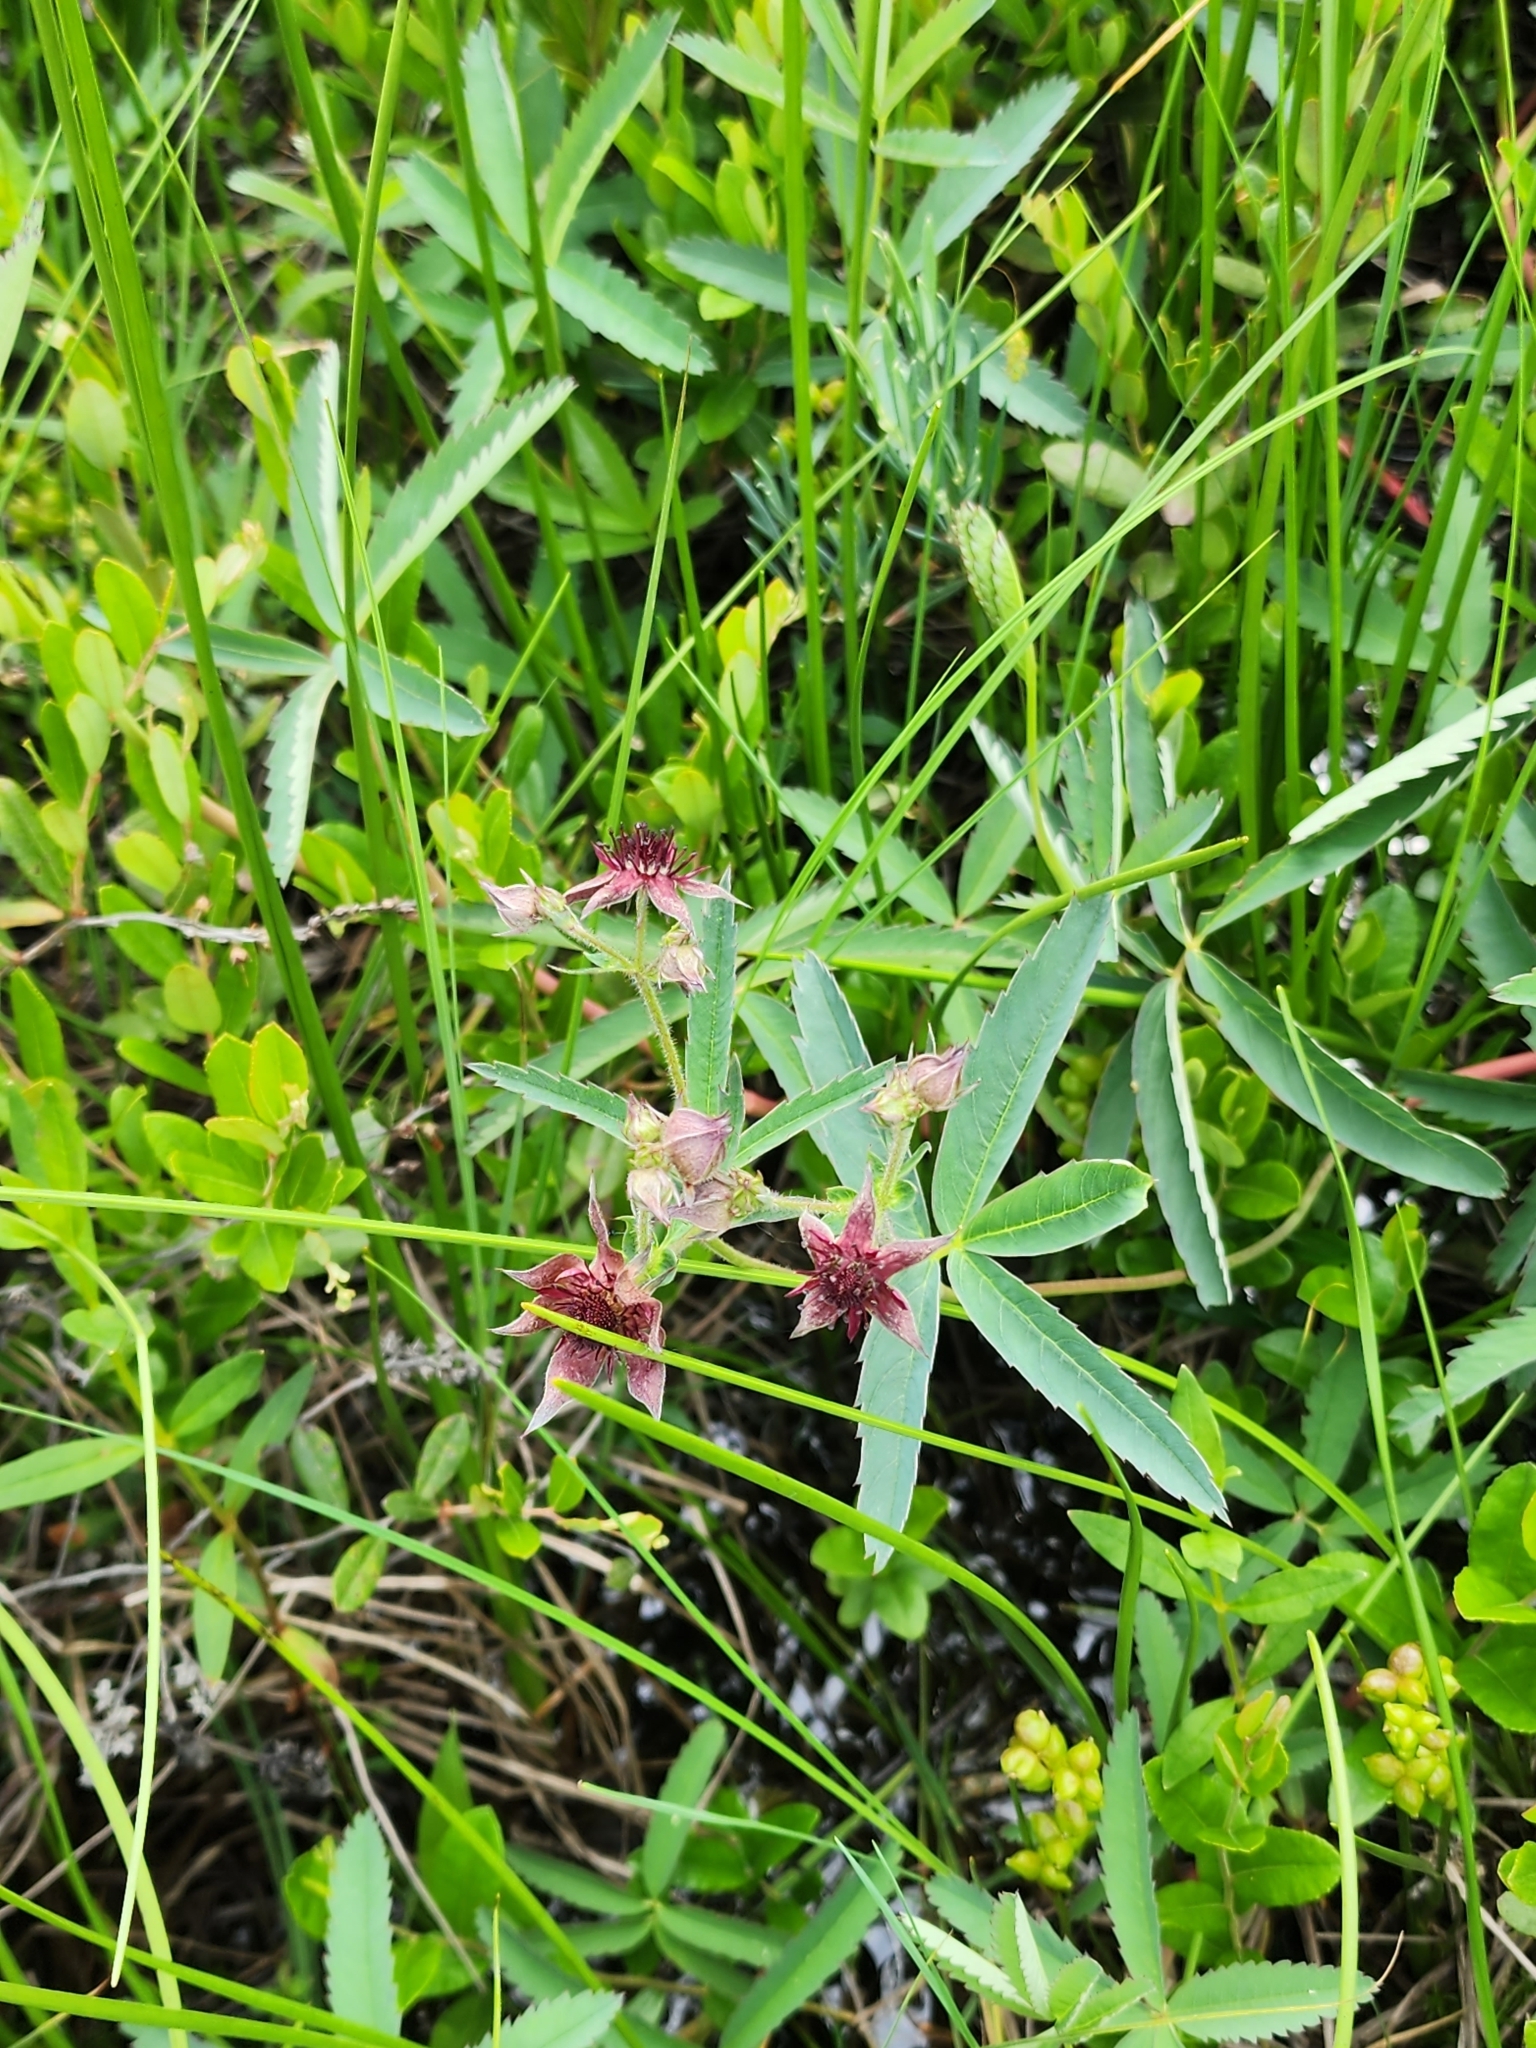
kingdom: Plantae
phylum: Tracheophyta
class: Magnoliopsida
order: Rosales
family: Rosaceae
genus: Comarum
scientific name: Comarum palustre
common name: Marsh cinquefoil
